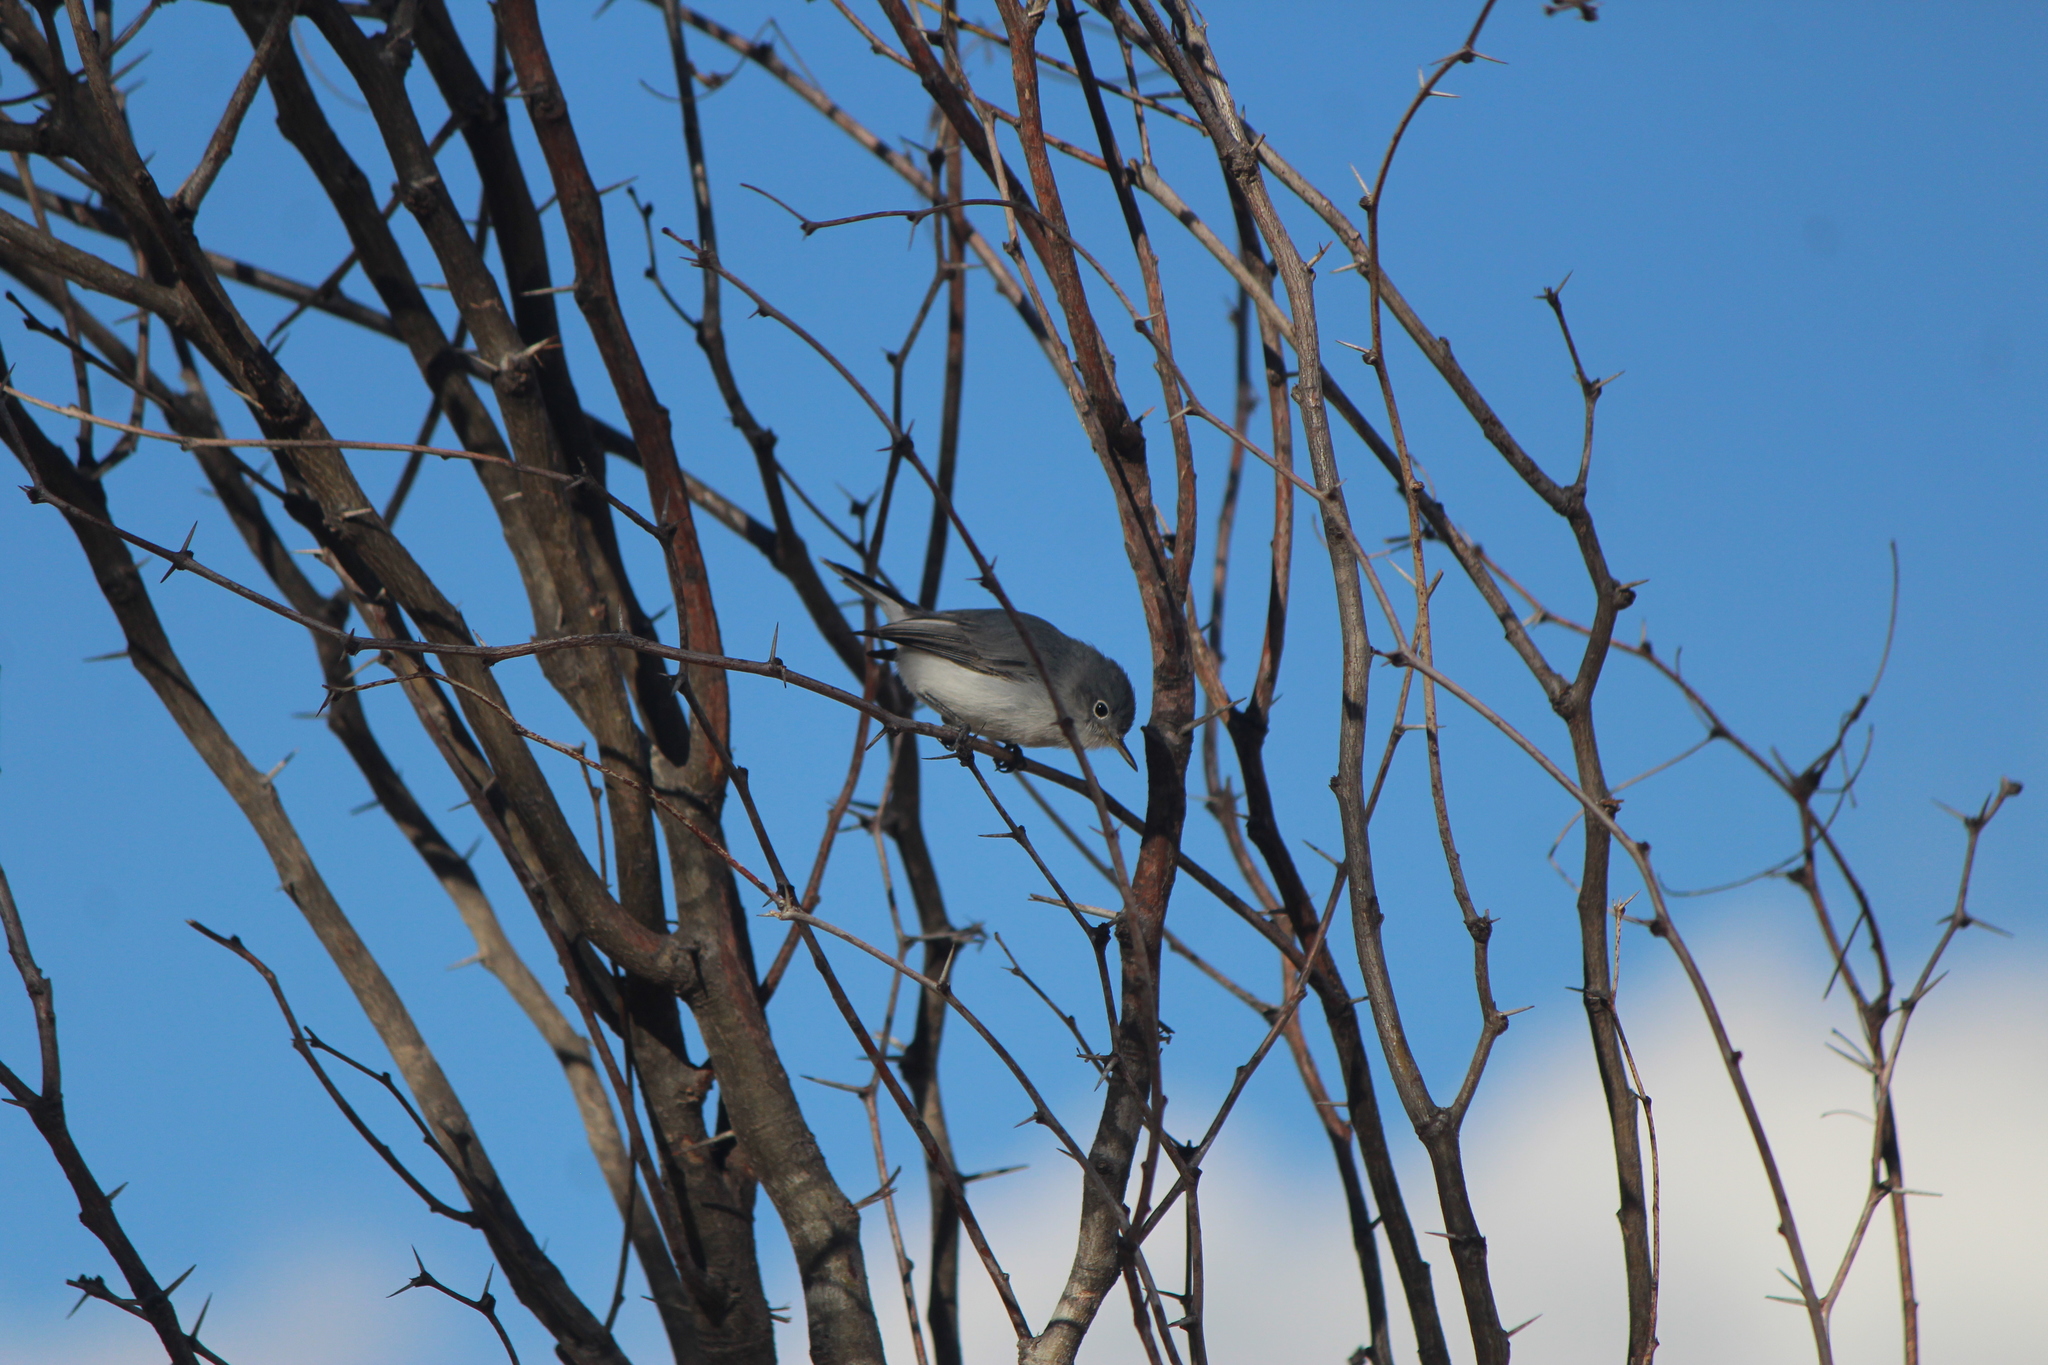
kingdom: Animalia
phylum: Chordata
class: Aves
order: Passeriformes
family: Polioptilidae
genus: Polioptila
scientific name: Polioptila caerulea
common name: Blue-gray gnatcatcher
